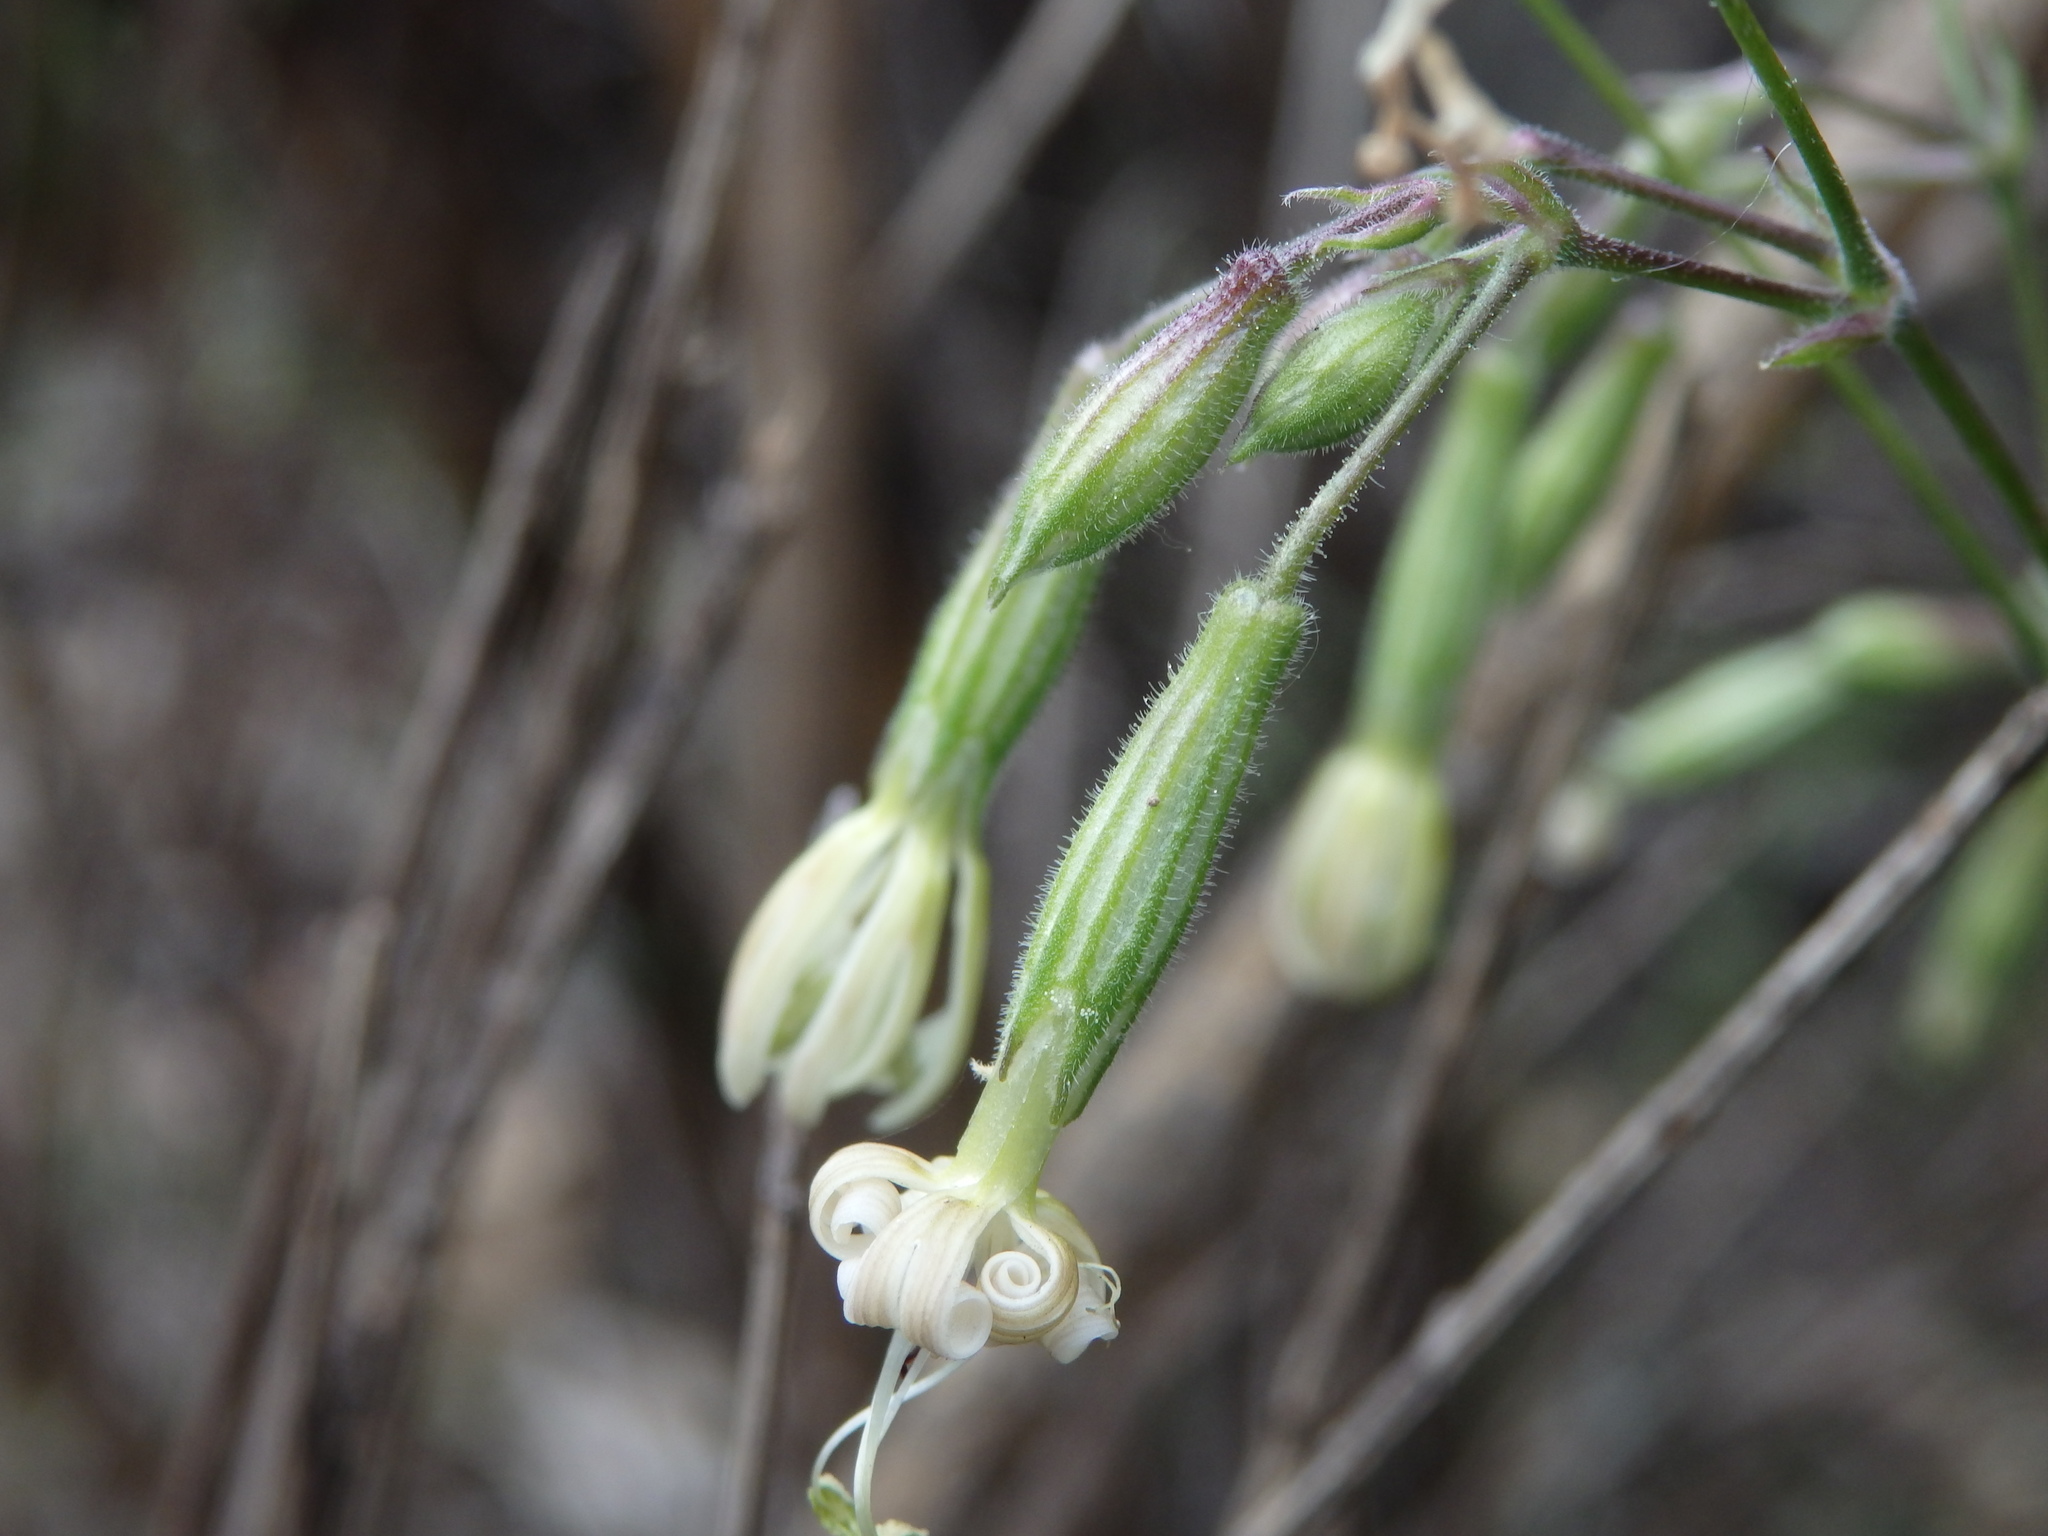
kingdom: Plantae
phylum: Tracheophyta
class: Magnoliopsida
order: Caryophyllales
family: Caryophyllaceae
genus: Silene
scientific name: Silene nutans
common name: Nottingham catchfly
